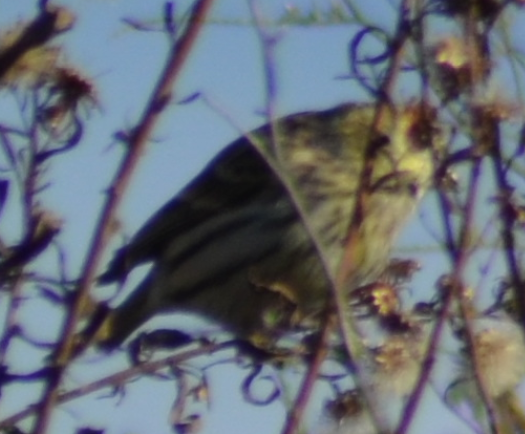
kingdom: Animalia
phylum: Chordata
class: Aves
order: Passeriformes
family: Emberizidae
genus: Emberiza
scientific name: Emberiza citrinella
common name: Yellowhammer
